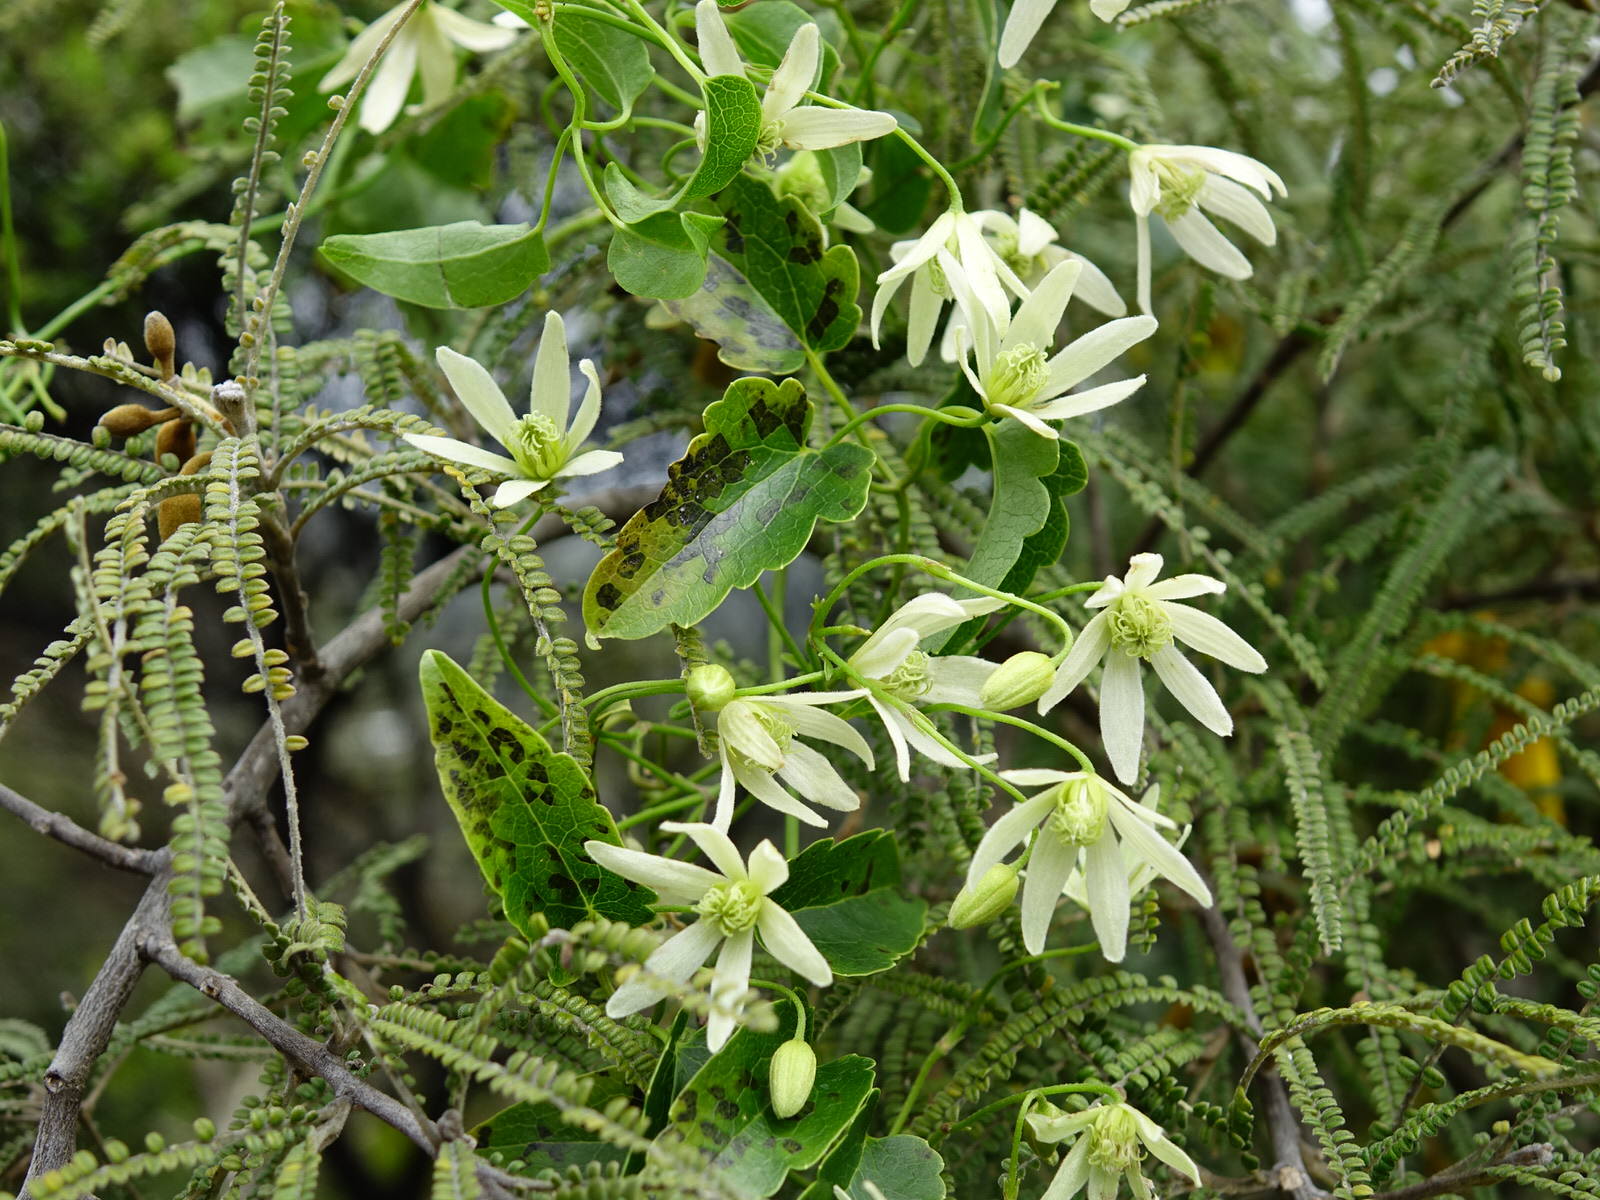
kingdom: Plantae
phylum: Tracheophyta
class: Magnoliopsida
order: Ranunculales
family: Ranunculaceae
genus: Clematis
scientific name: Clematis forsteri
